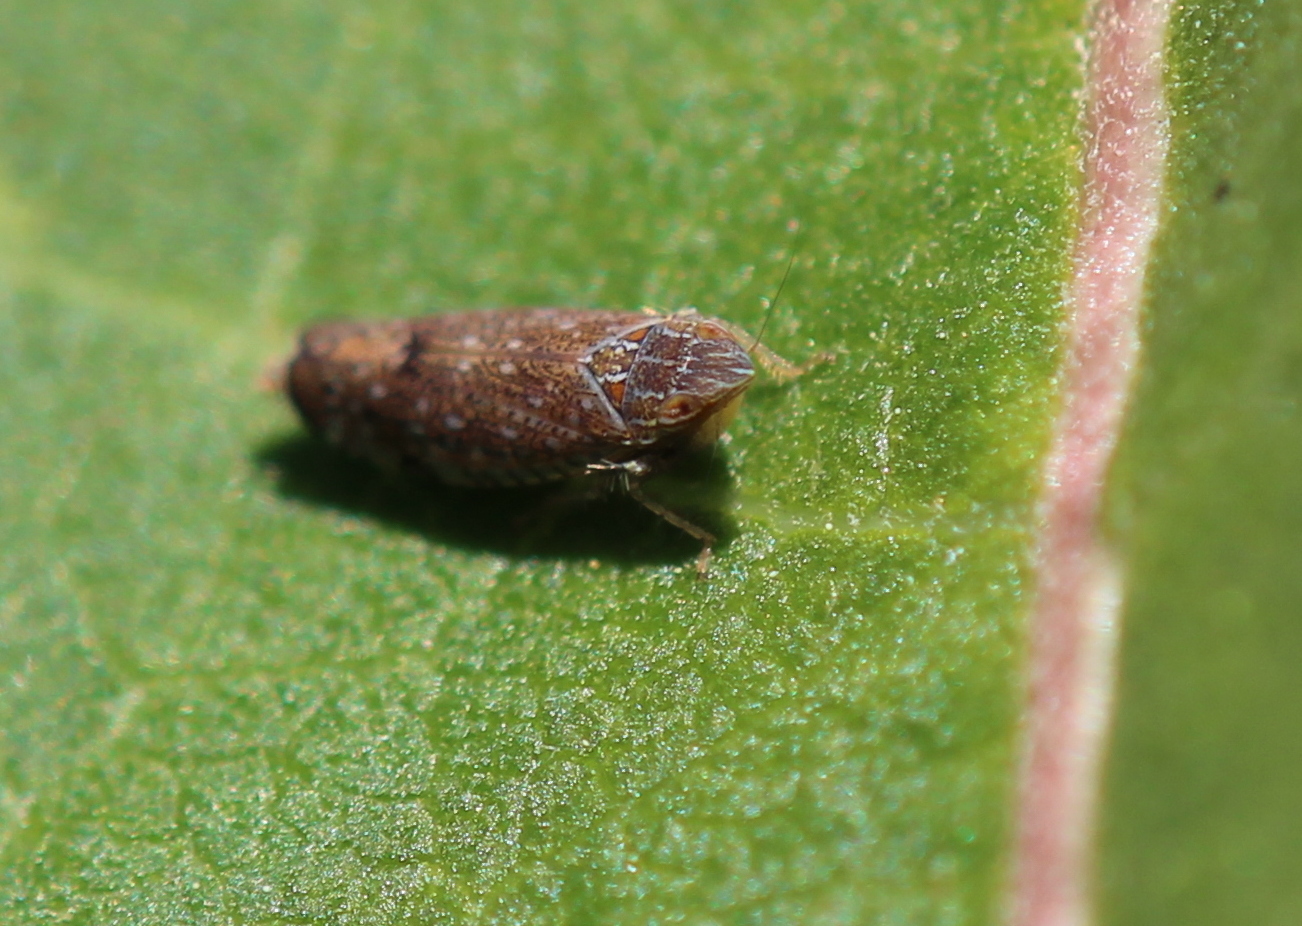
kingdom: Animalia
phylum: Arthropoda
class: Insecta
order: Hemiptera
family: Cicadellidae
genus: Scaphytopius
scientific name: Scaphytopius acutus
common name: The sharp-nosed leafhopper
